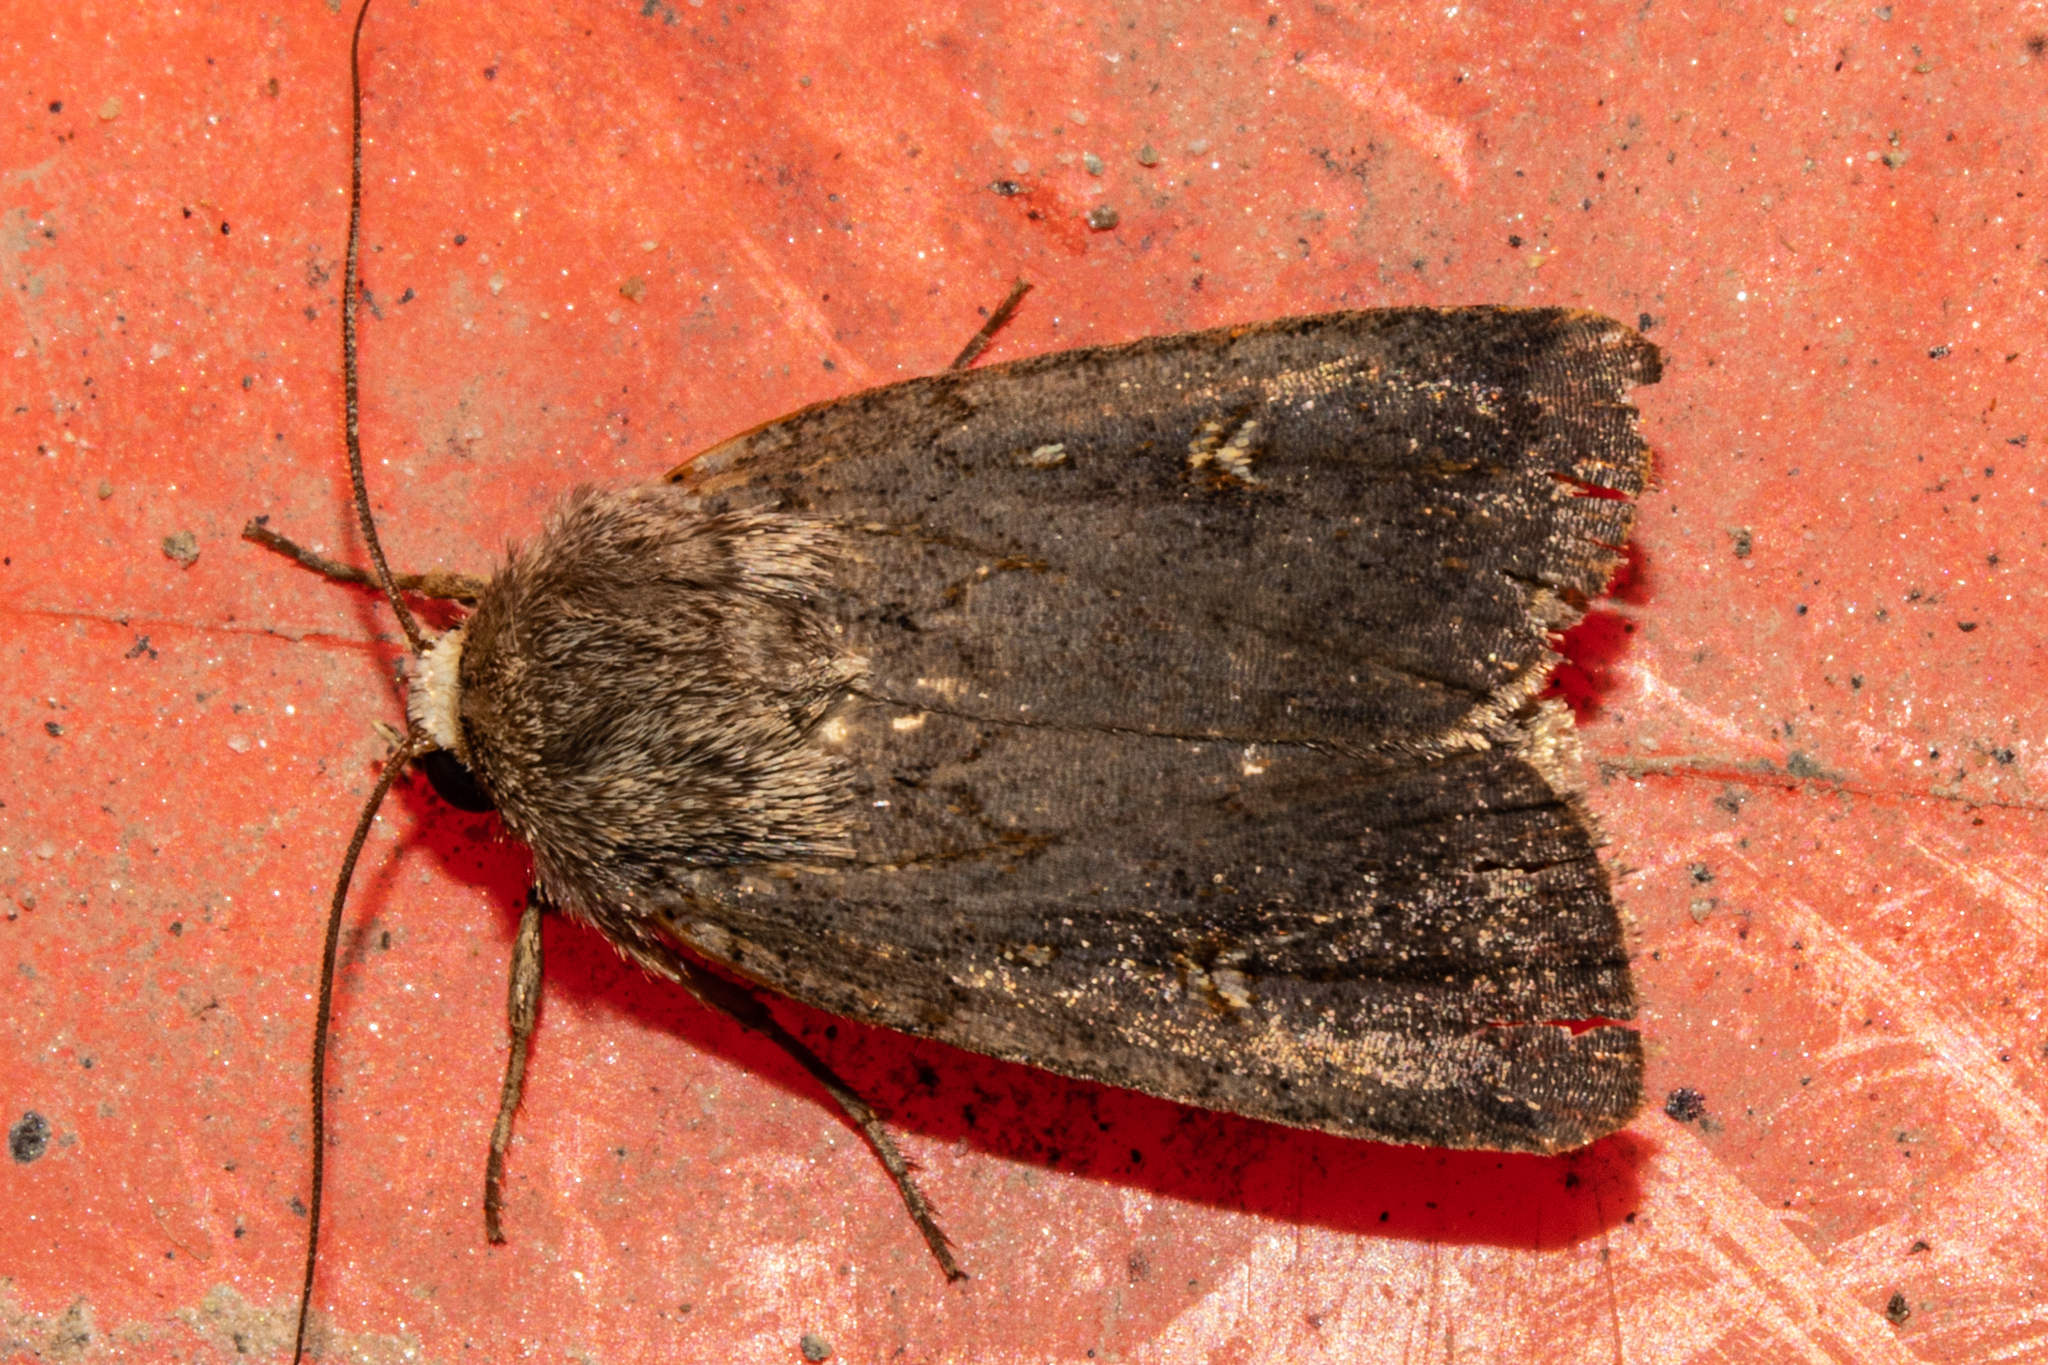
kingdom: Animalia
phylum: Arthropoda
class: Insecta
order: Lepidoptera
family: Noctuidae
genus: Proteuxoa
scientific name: Proteuxoa tetronycha
